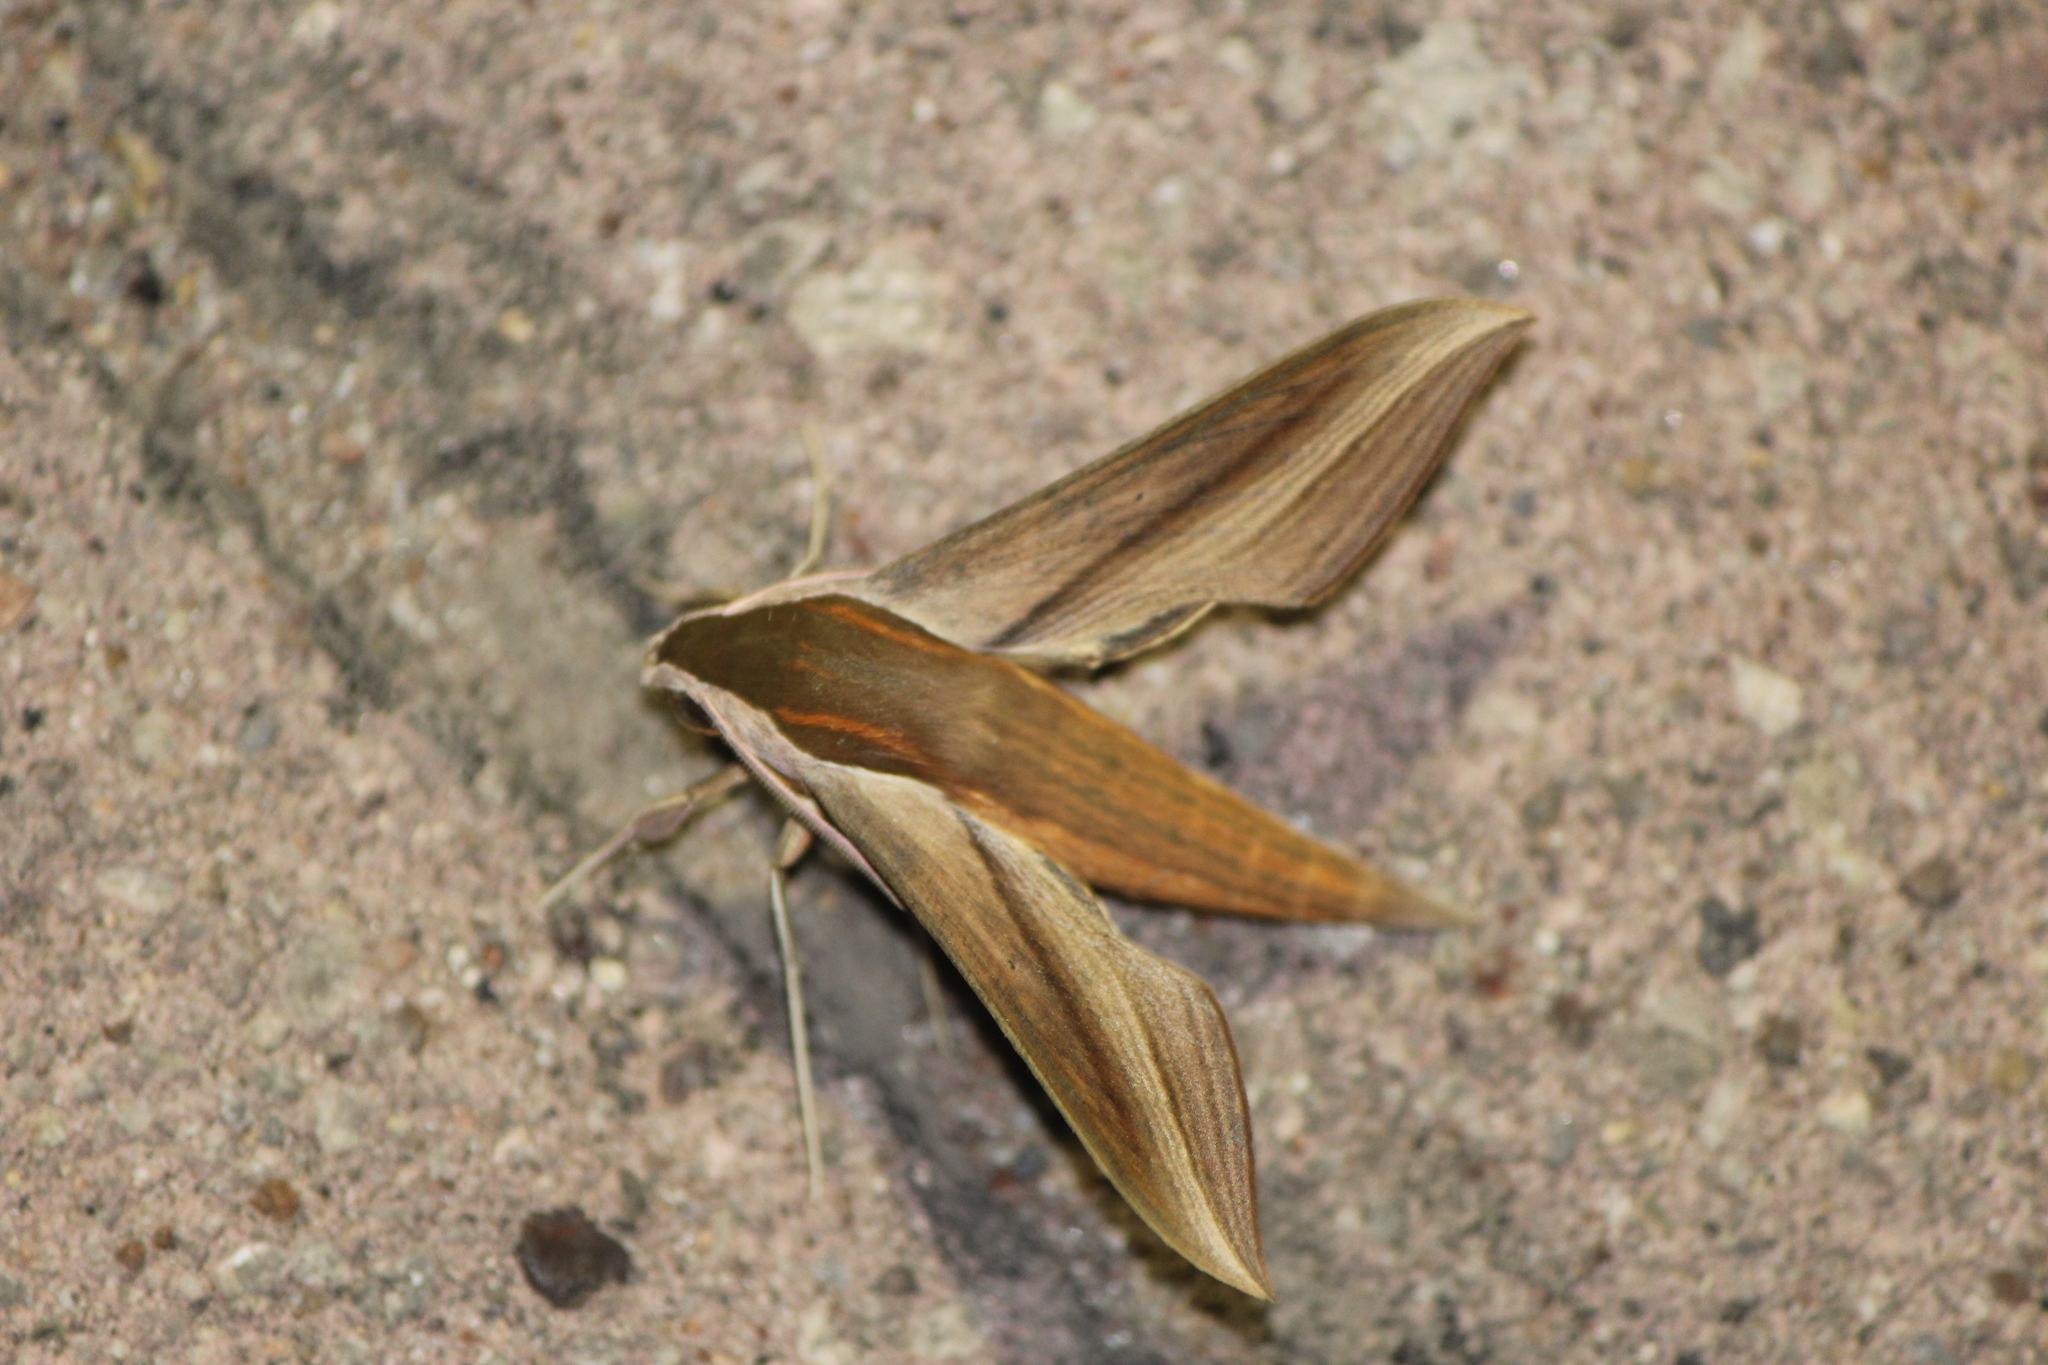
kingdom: Animalia
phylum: Arthropoda
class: Insecta
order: Lepidoptera
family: Sphingidae
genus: Xylophanes
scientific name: Xylophanes tersa
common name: Tersa sphinx
